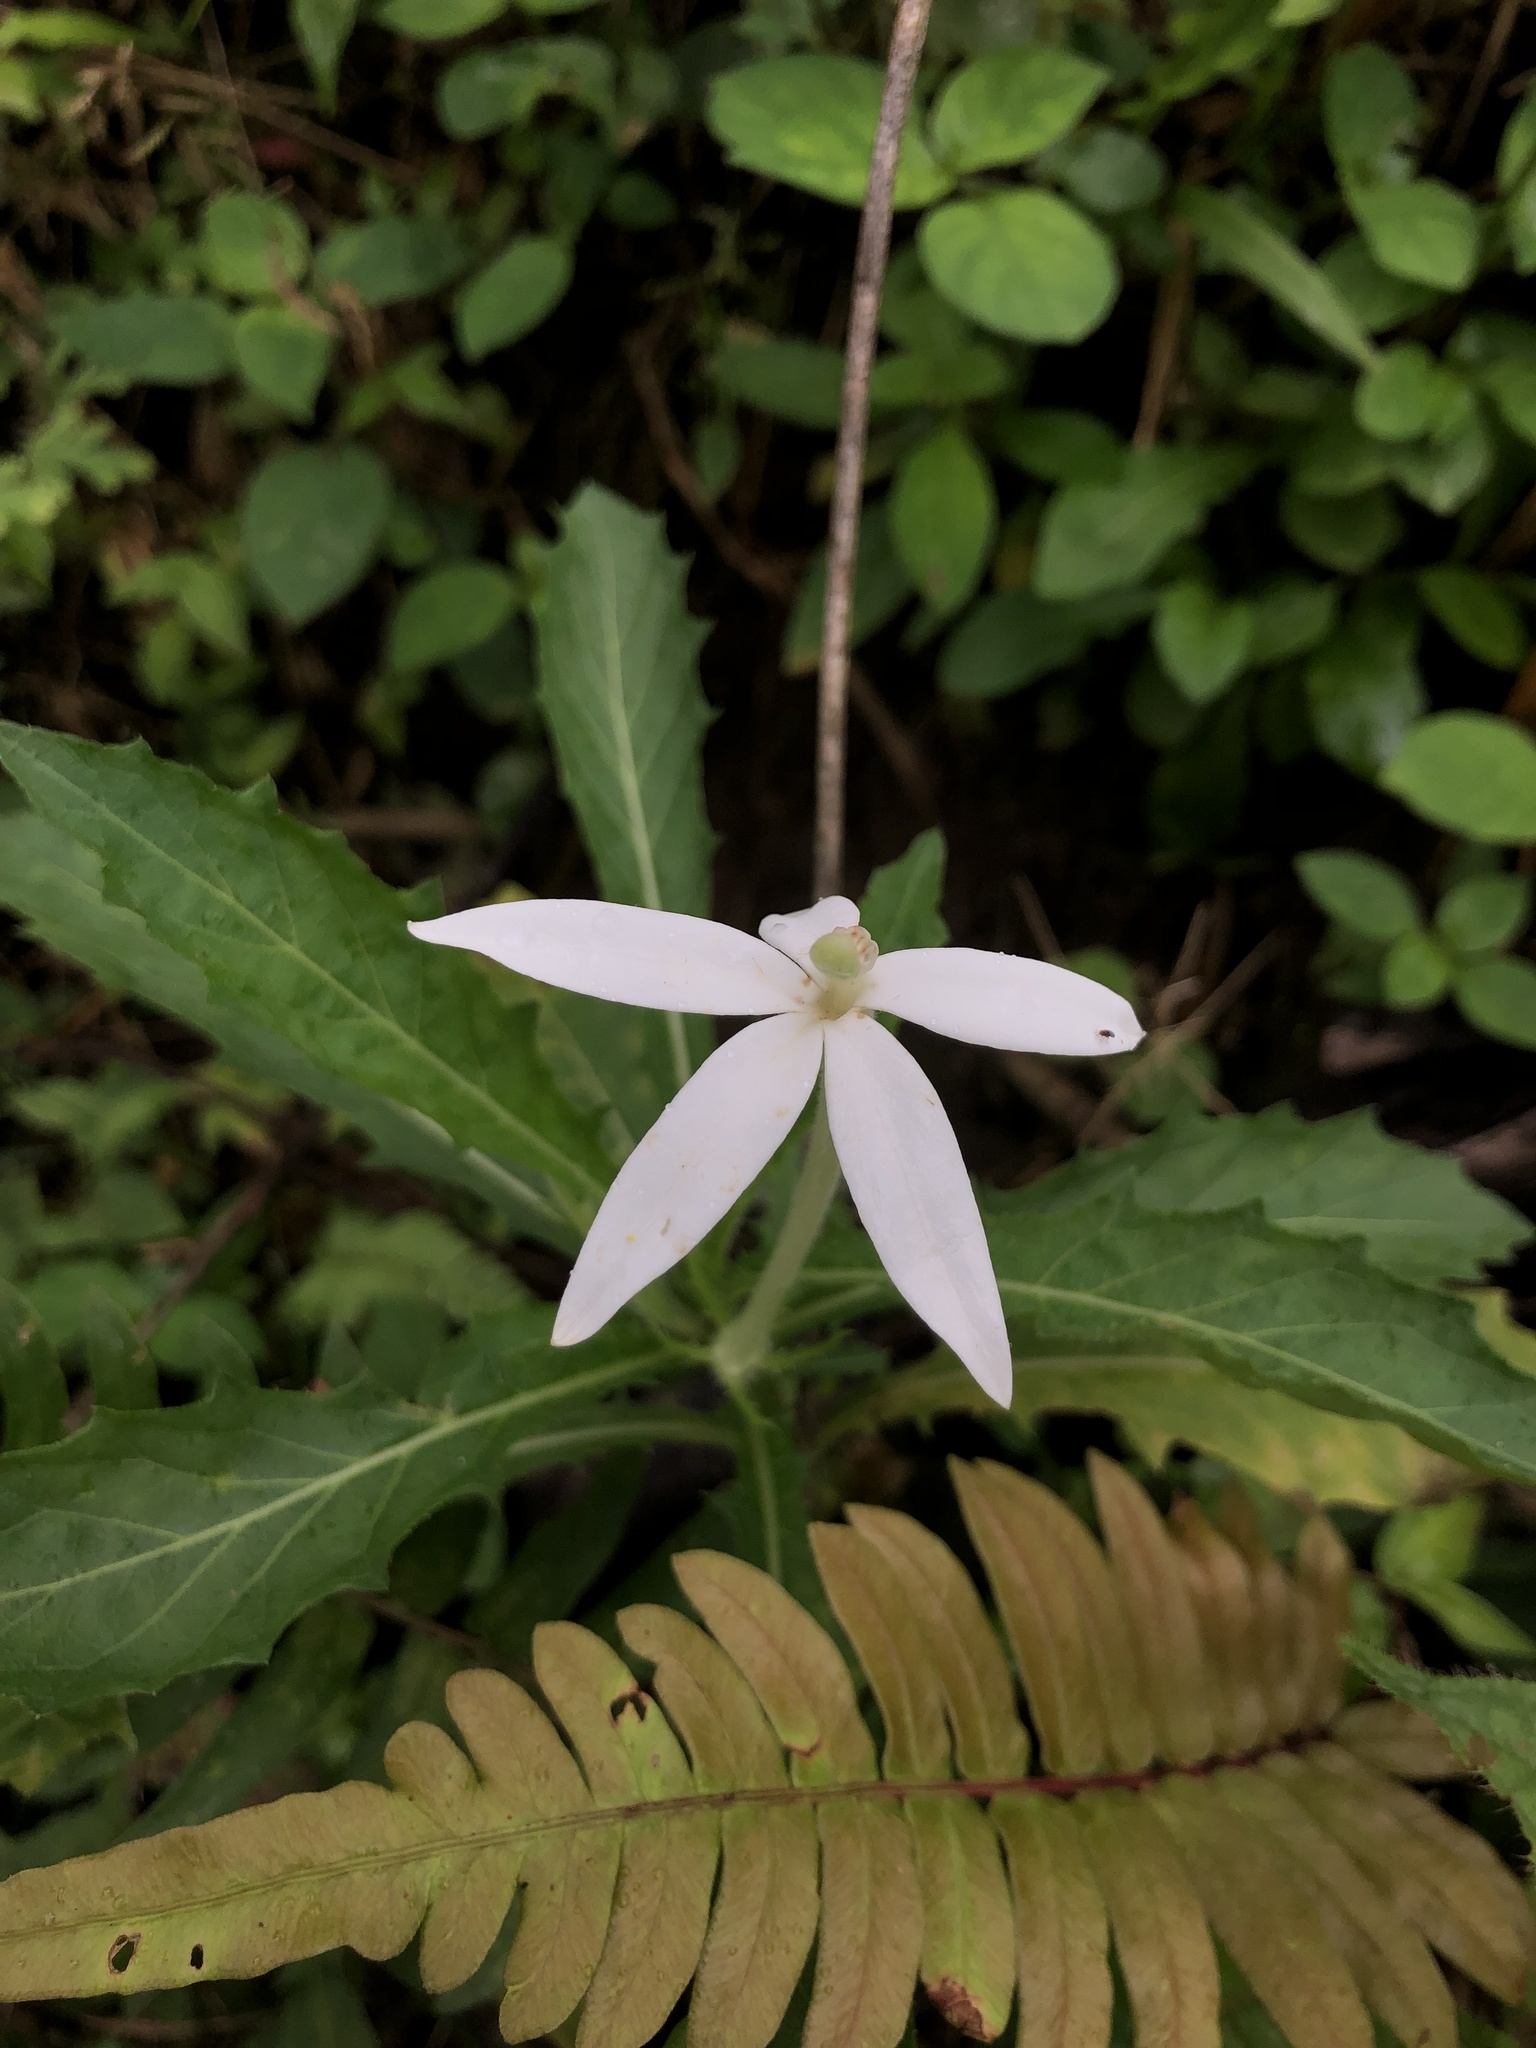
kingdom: Plantae
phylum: Tracheophyta
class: Magnoliopsida
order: Asterales
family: Campanulaceae
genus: Hippobroma
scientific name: Hippobroma longiflora
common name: Madamfate
